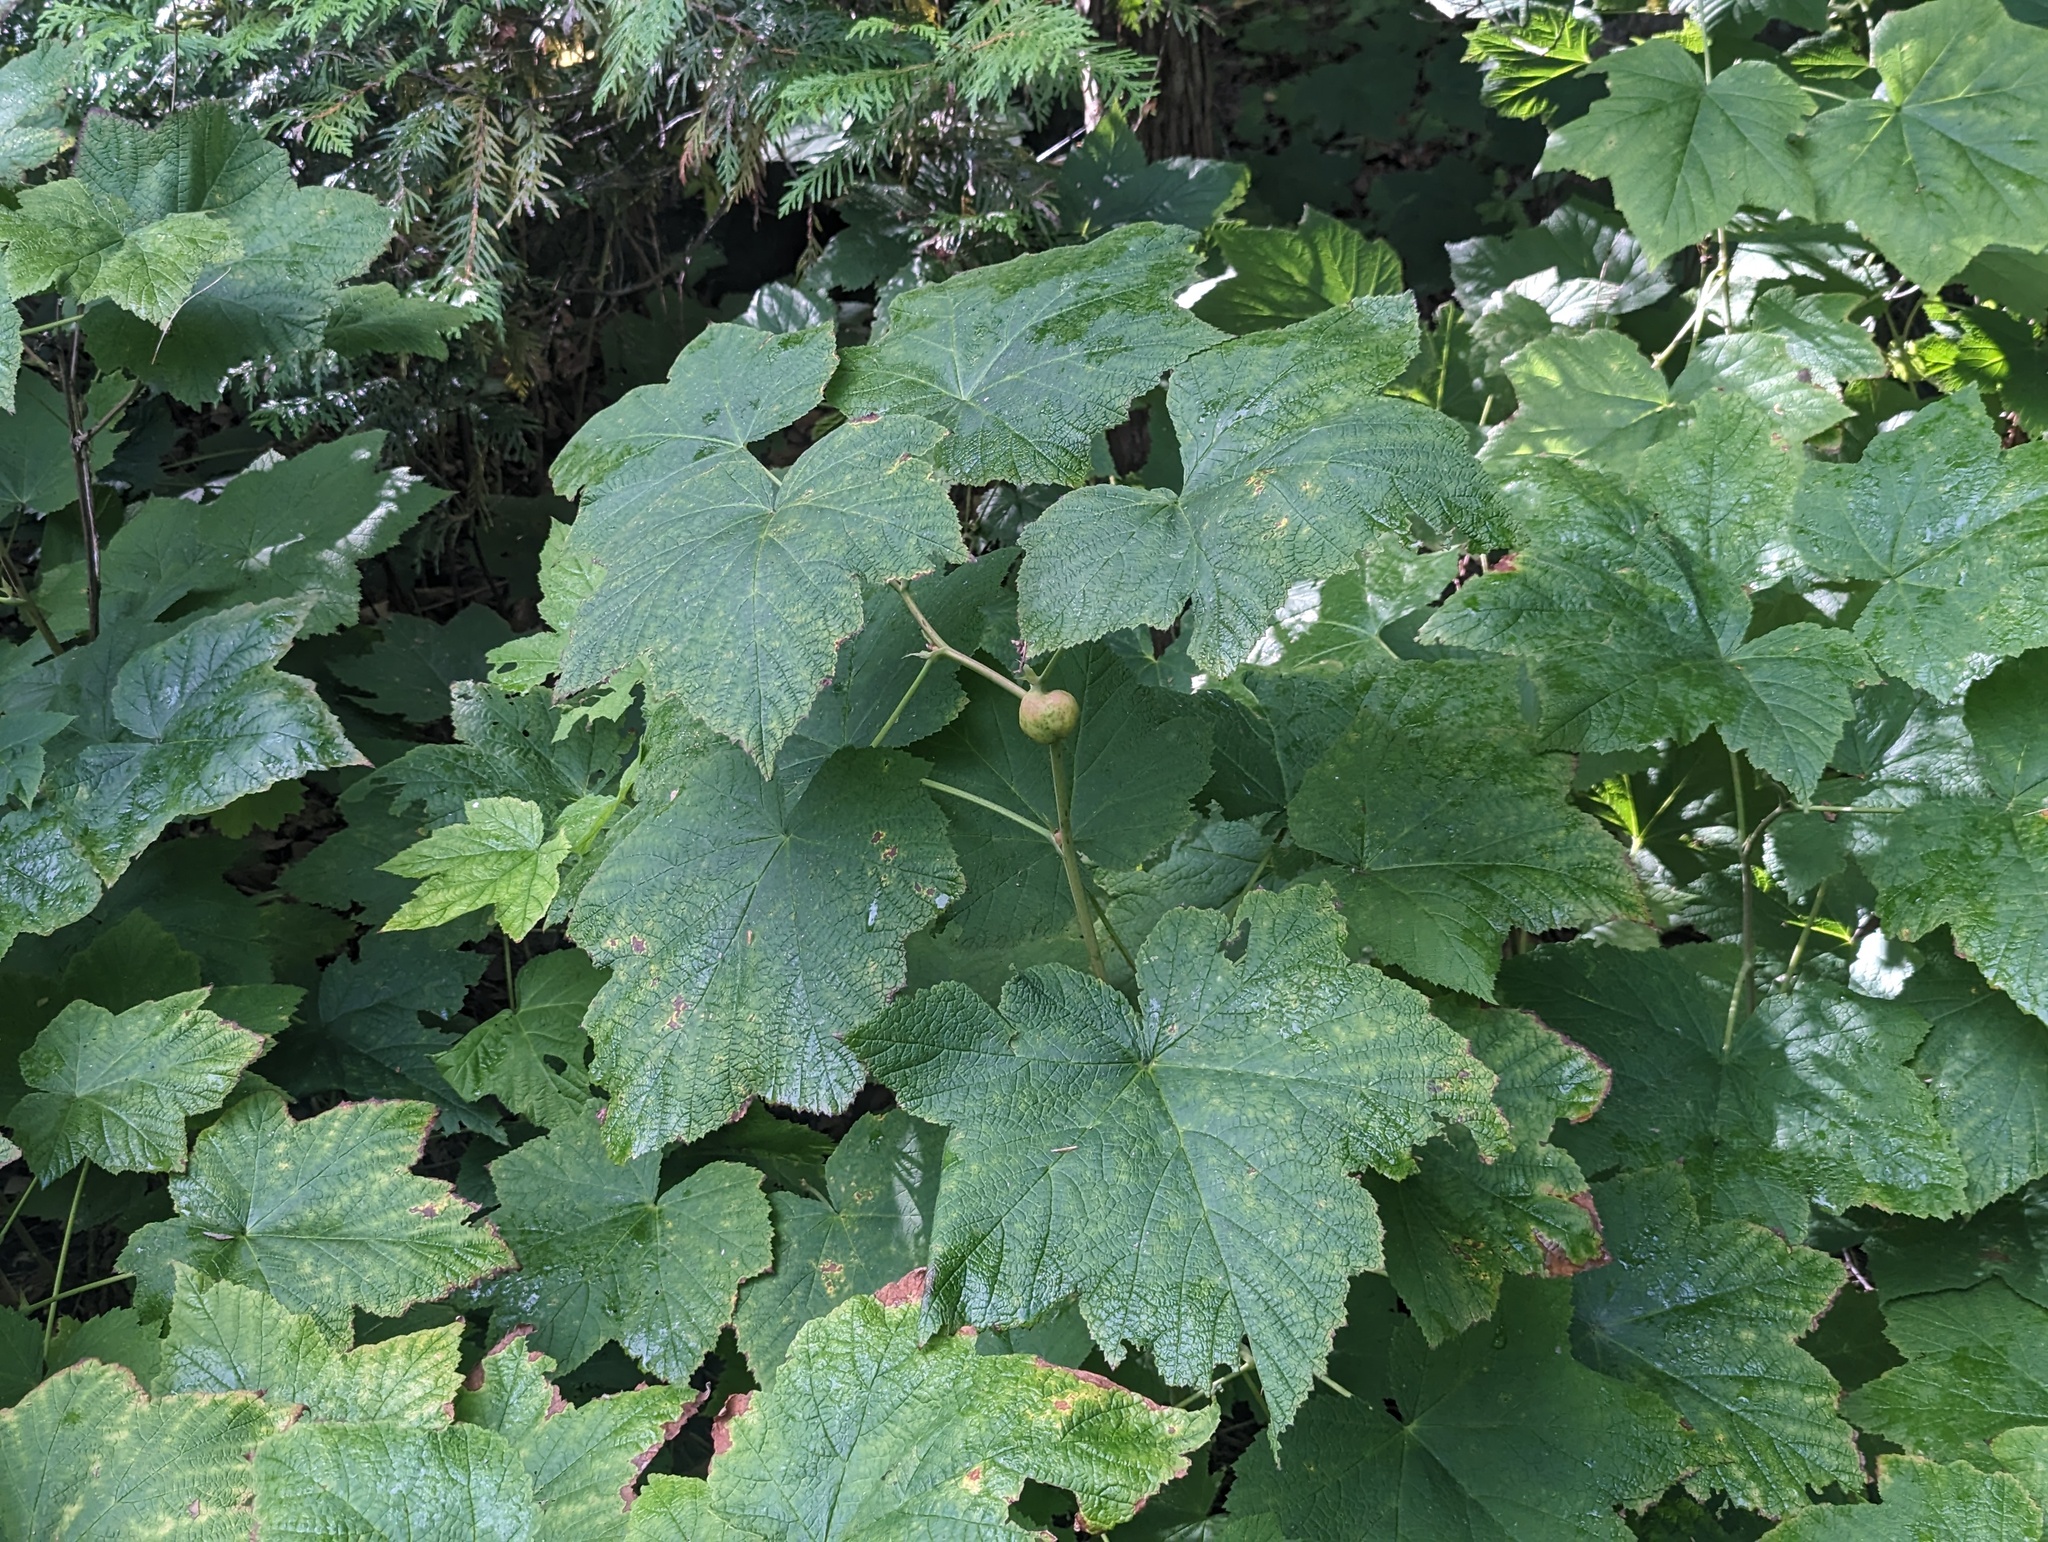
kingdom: Animalia
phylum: Arthropoda
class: Insecta
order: Hymenoptera
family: Cynipidae
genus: Diastrophus
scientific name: Diastrophus
